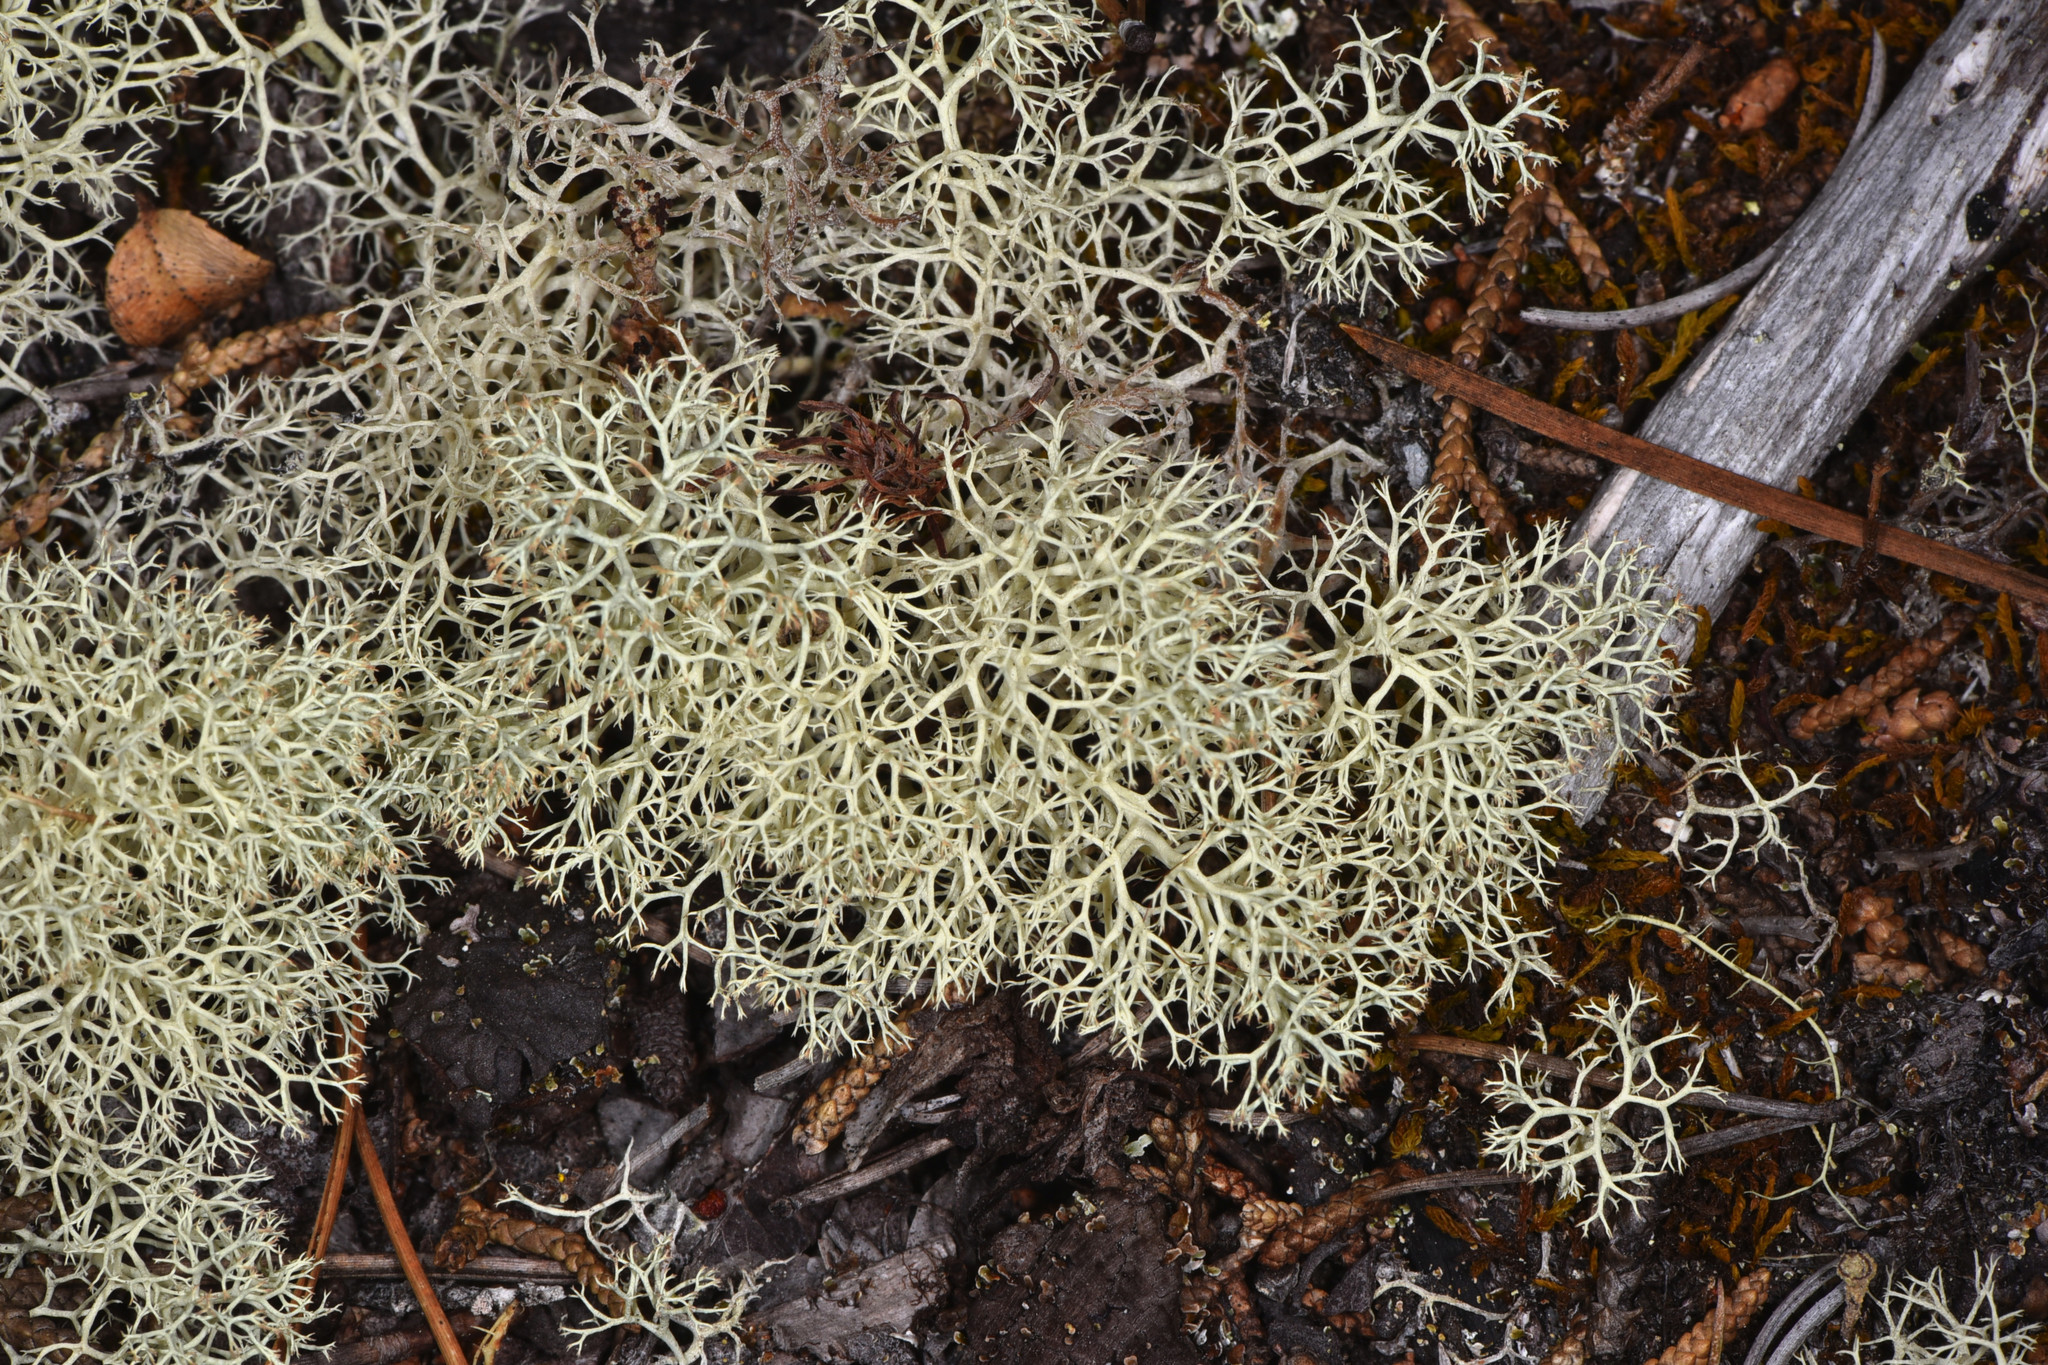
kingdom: Fungi
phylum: Ascomycota
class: Lecanoromycetes
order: Lecanorales
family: Cladoniaceae
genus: Cladonia
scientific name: Cladonia portentosa
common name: Reindeer lichen
